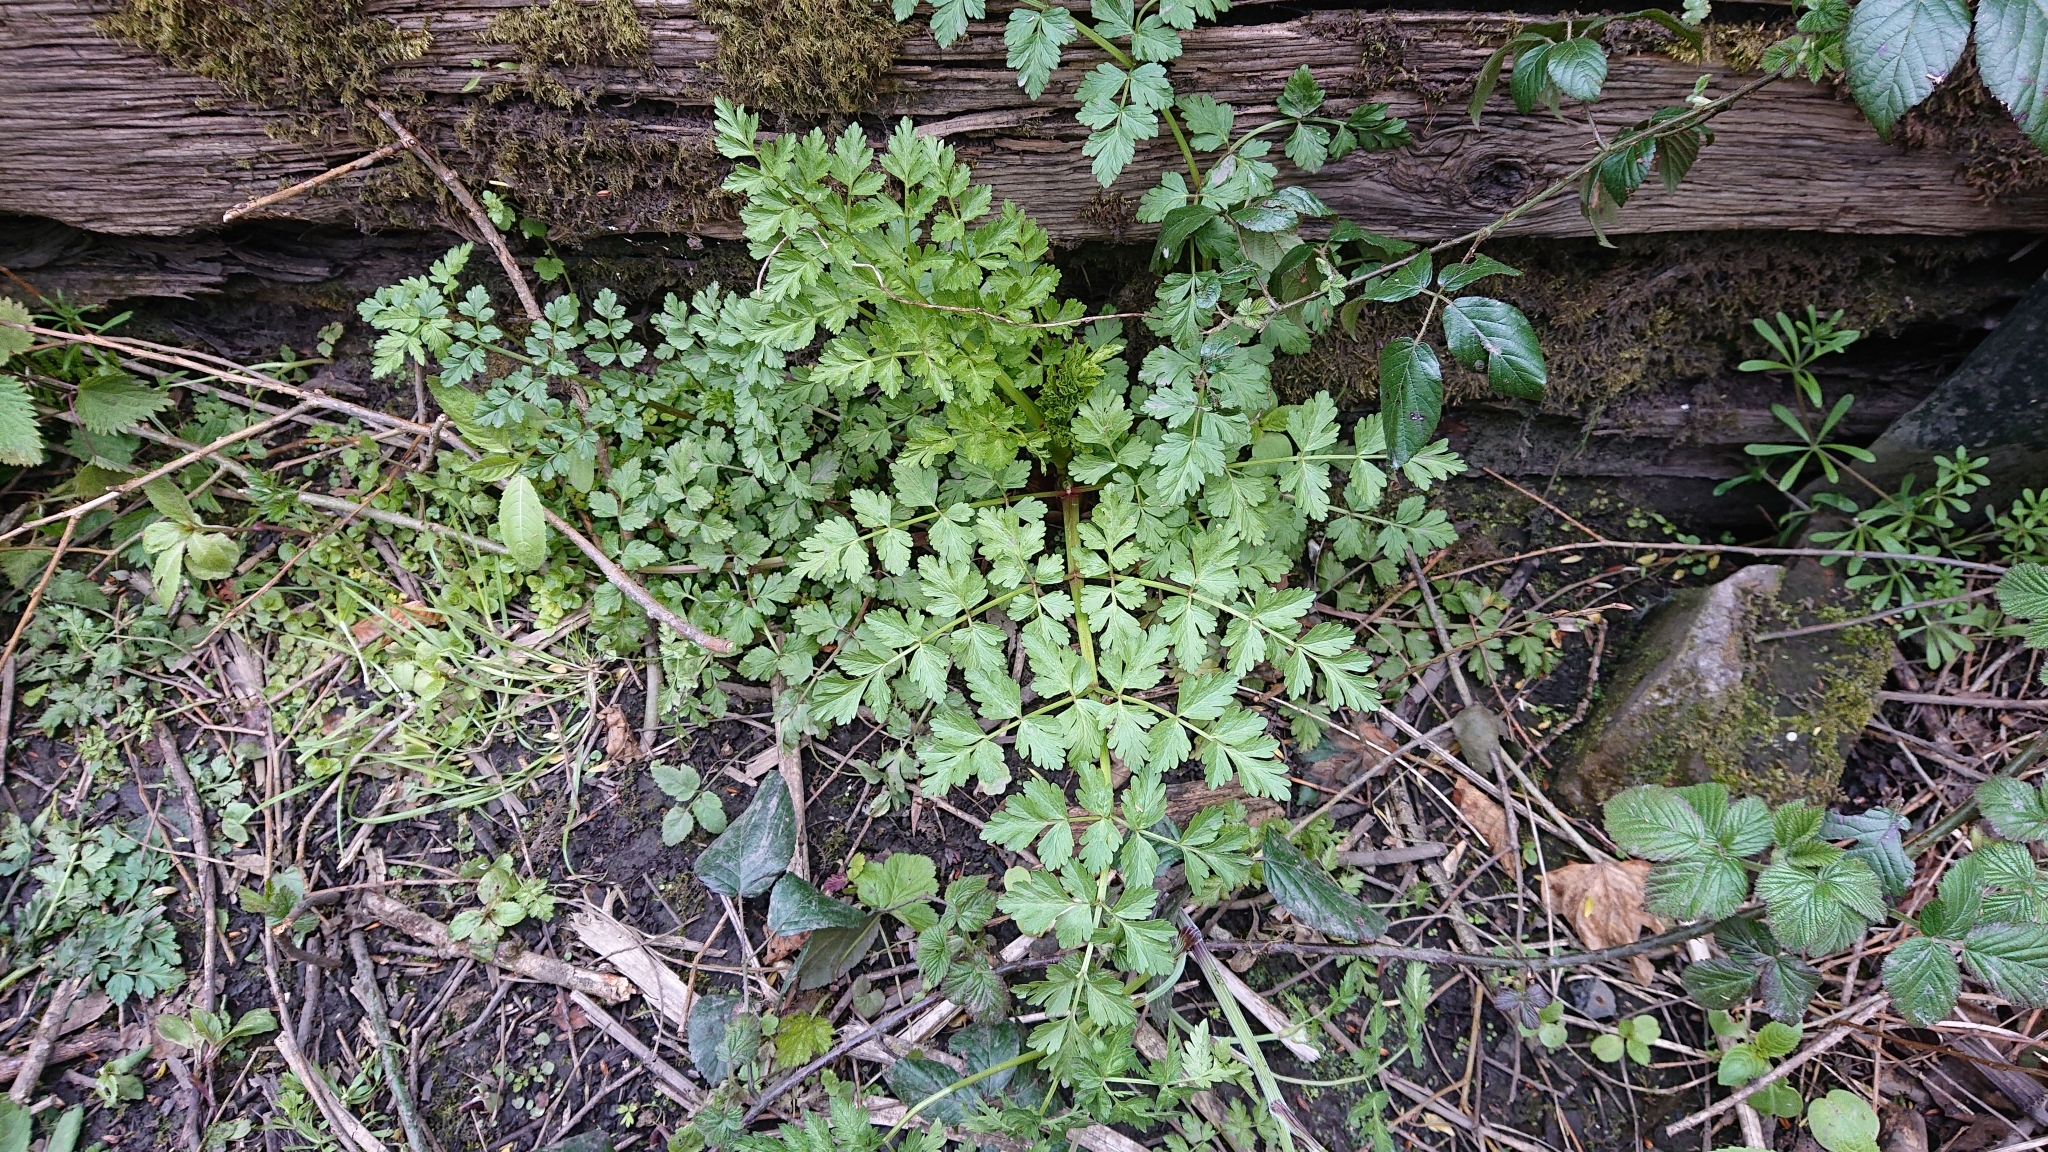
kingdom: Plantae
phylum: Tracheophyta
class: Magnoliopsida
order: Apiales
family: Apiaceae
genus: Oenanthe
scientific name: Oenanthe crocata
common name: Hemlock water-dropwort
